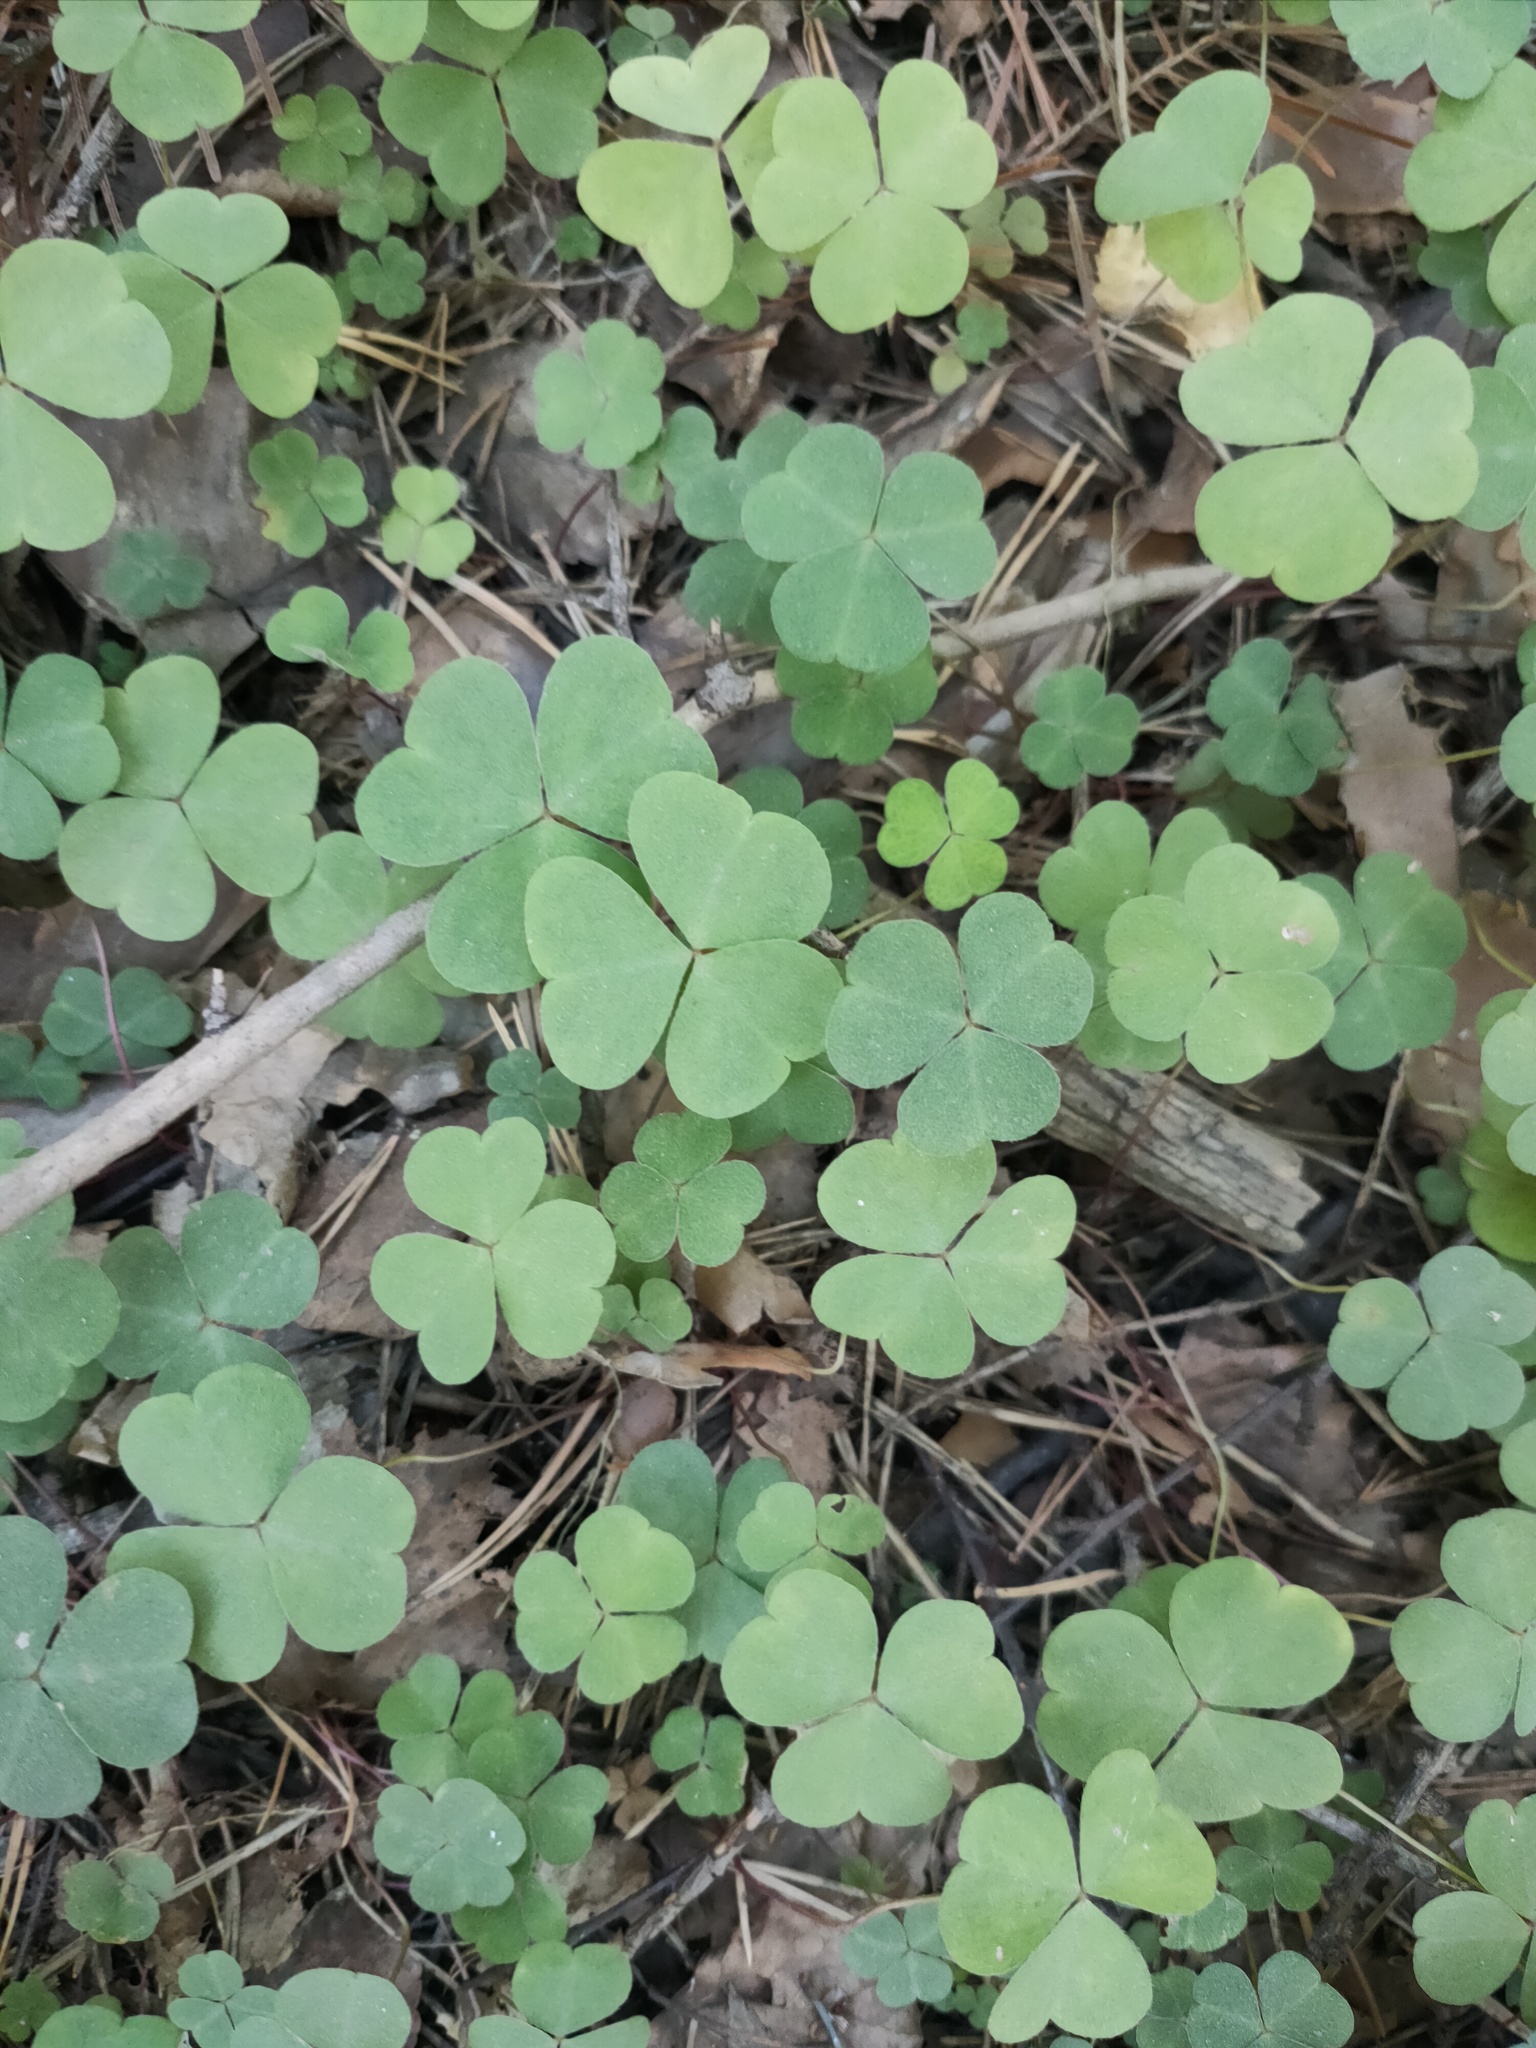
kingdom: Plantae
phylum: Tracheophyta
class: Magnoliopsida
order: Oxalidales
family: Oxalidaceae
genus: Oxalis
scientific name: Oxalis acetosella
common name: Wood-sorrel
